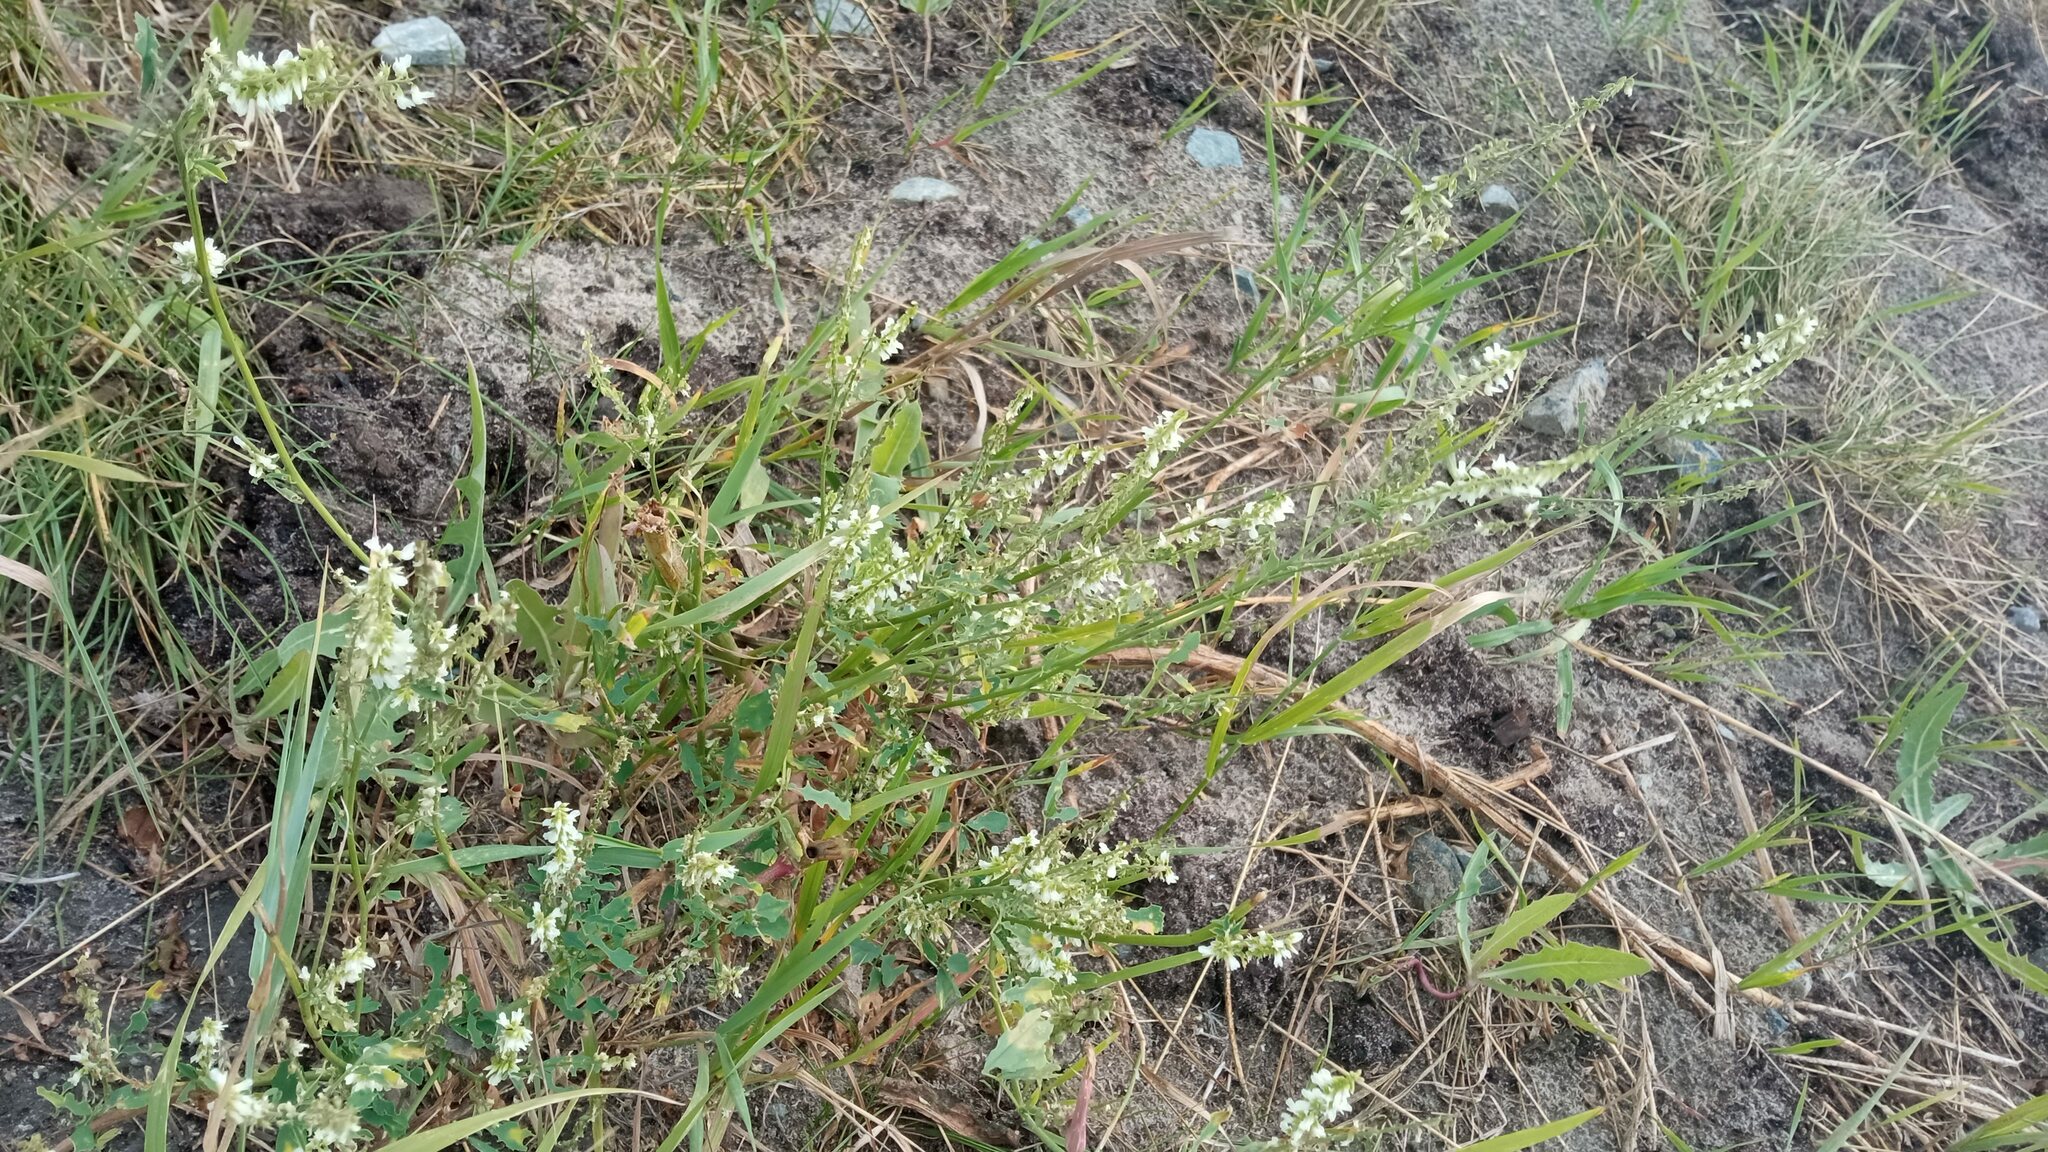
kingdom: Plantae
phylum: Tracheophyta
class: Magnoliopsida
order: Fabales
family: Fabaceae
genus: Melilotus
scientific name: Melilotus albus
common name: White melilot
